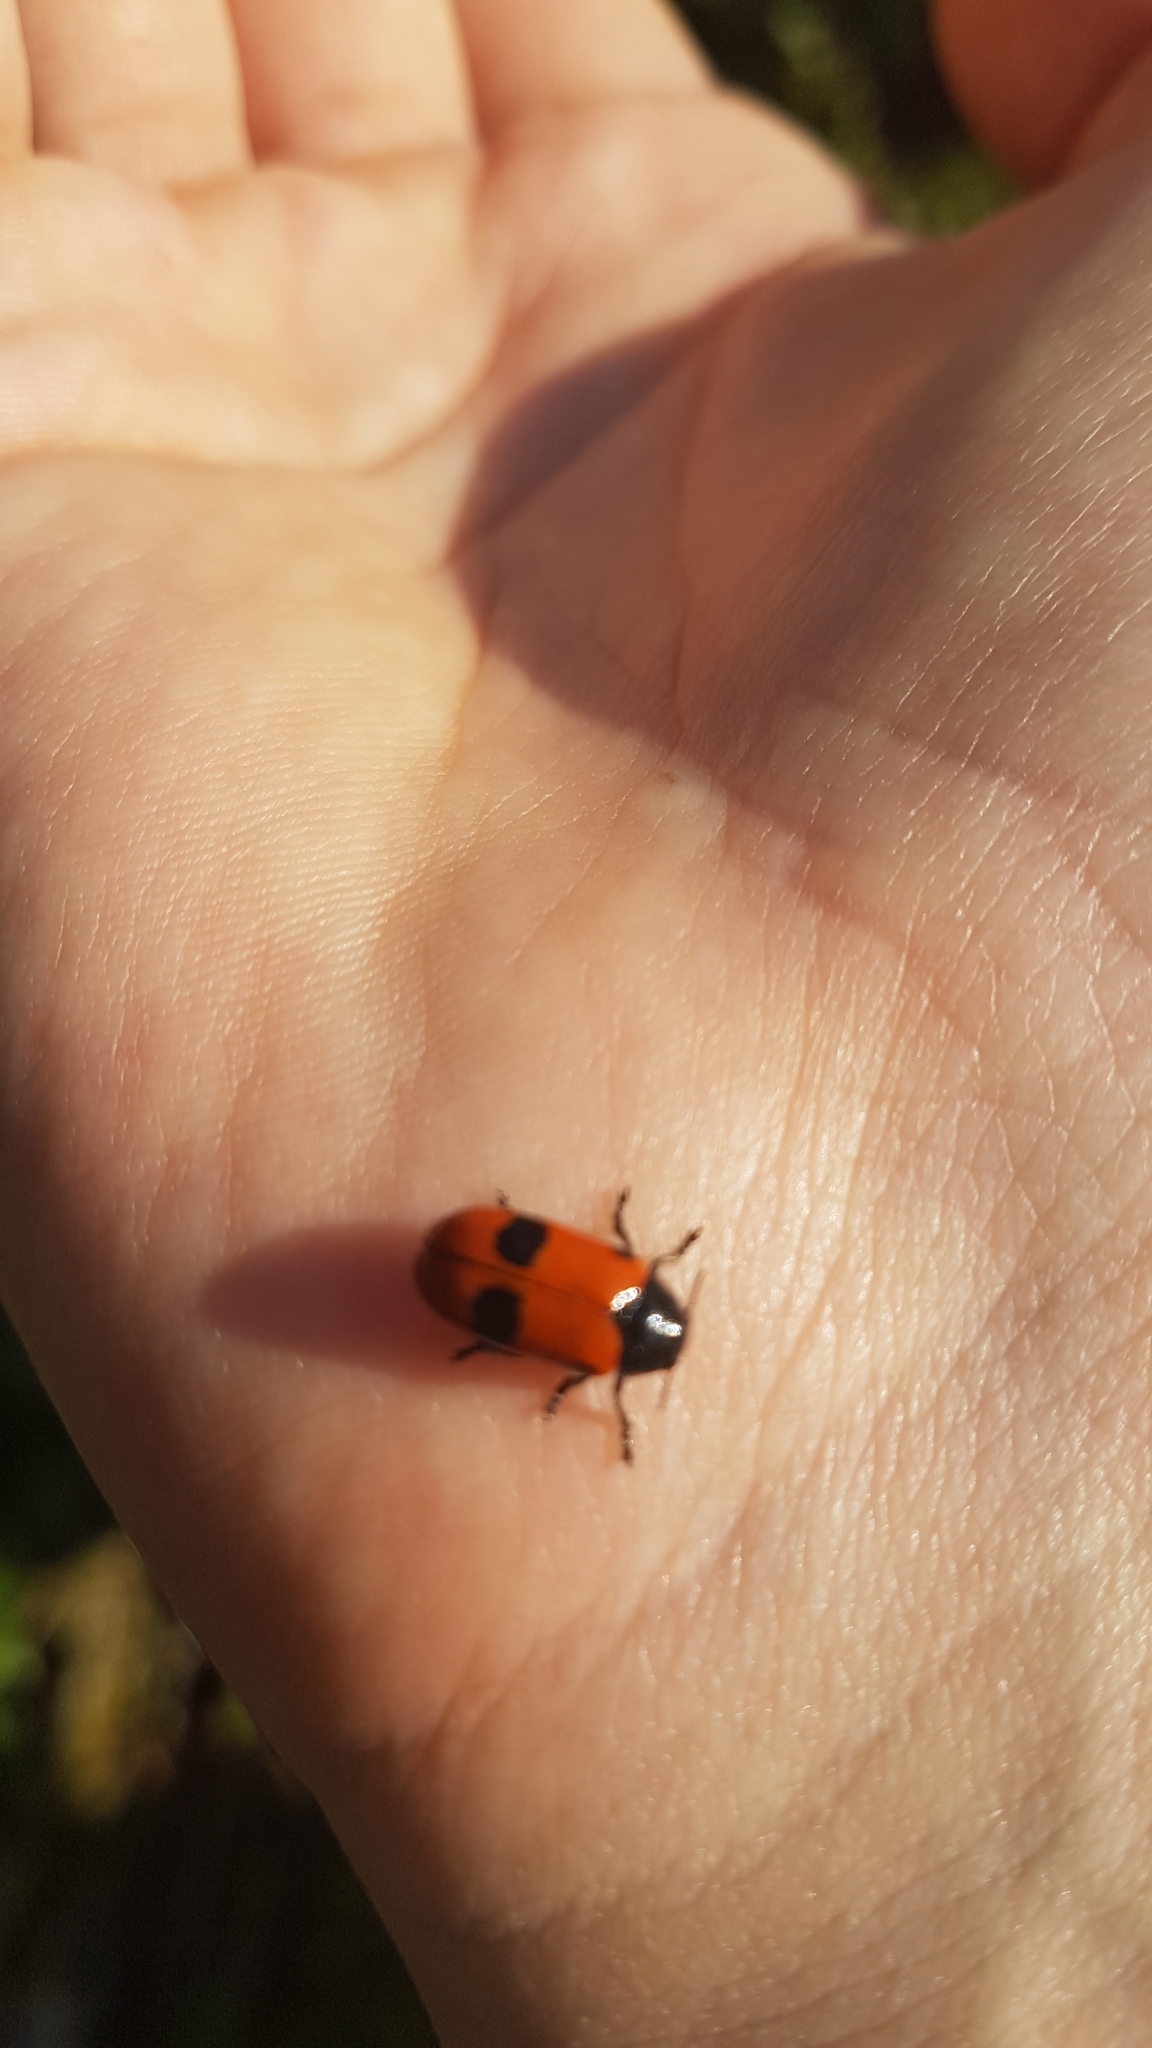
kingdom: Animalia
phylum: Arthropoda
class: Insecta
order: Coleoptera
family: Chrysomelidae
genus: Clytra
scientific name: Clytra laeviuscula
